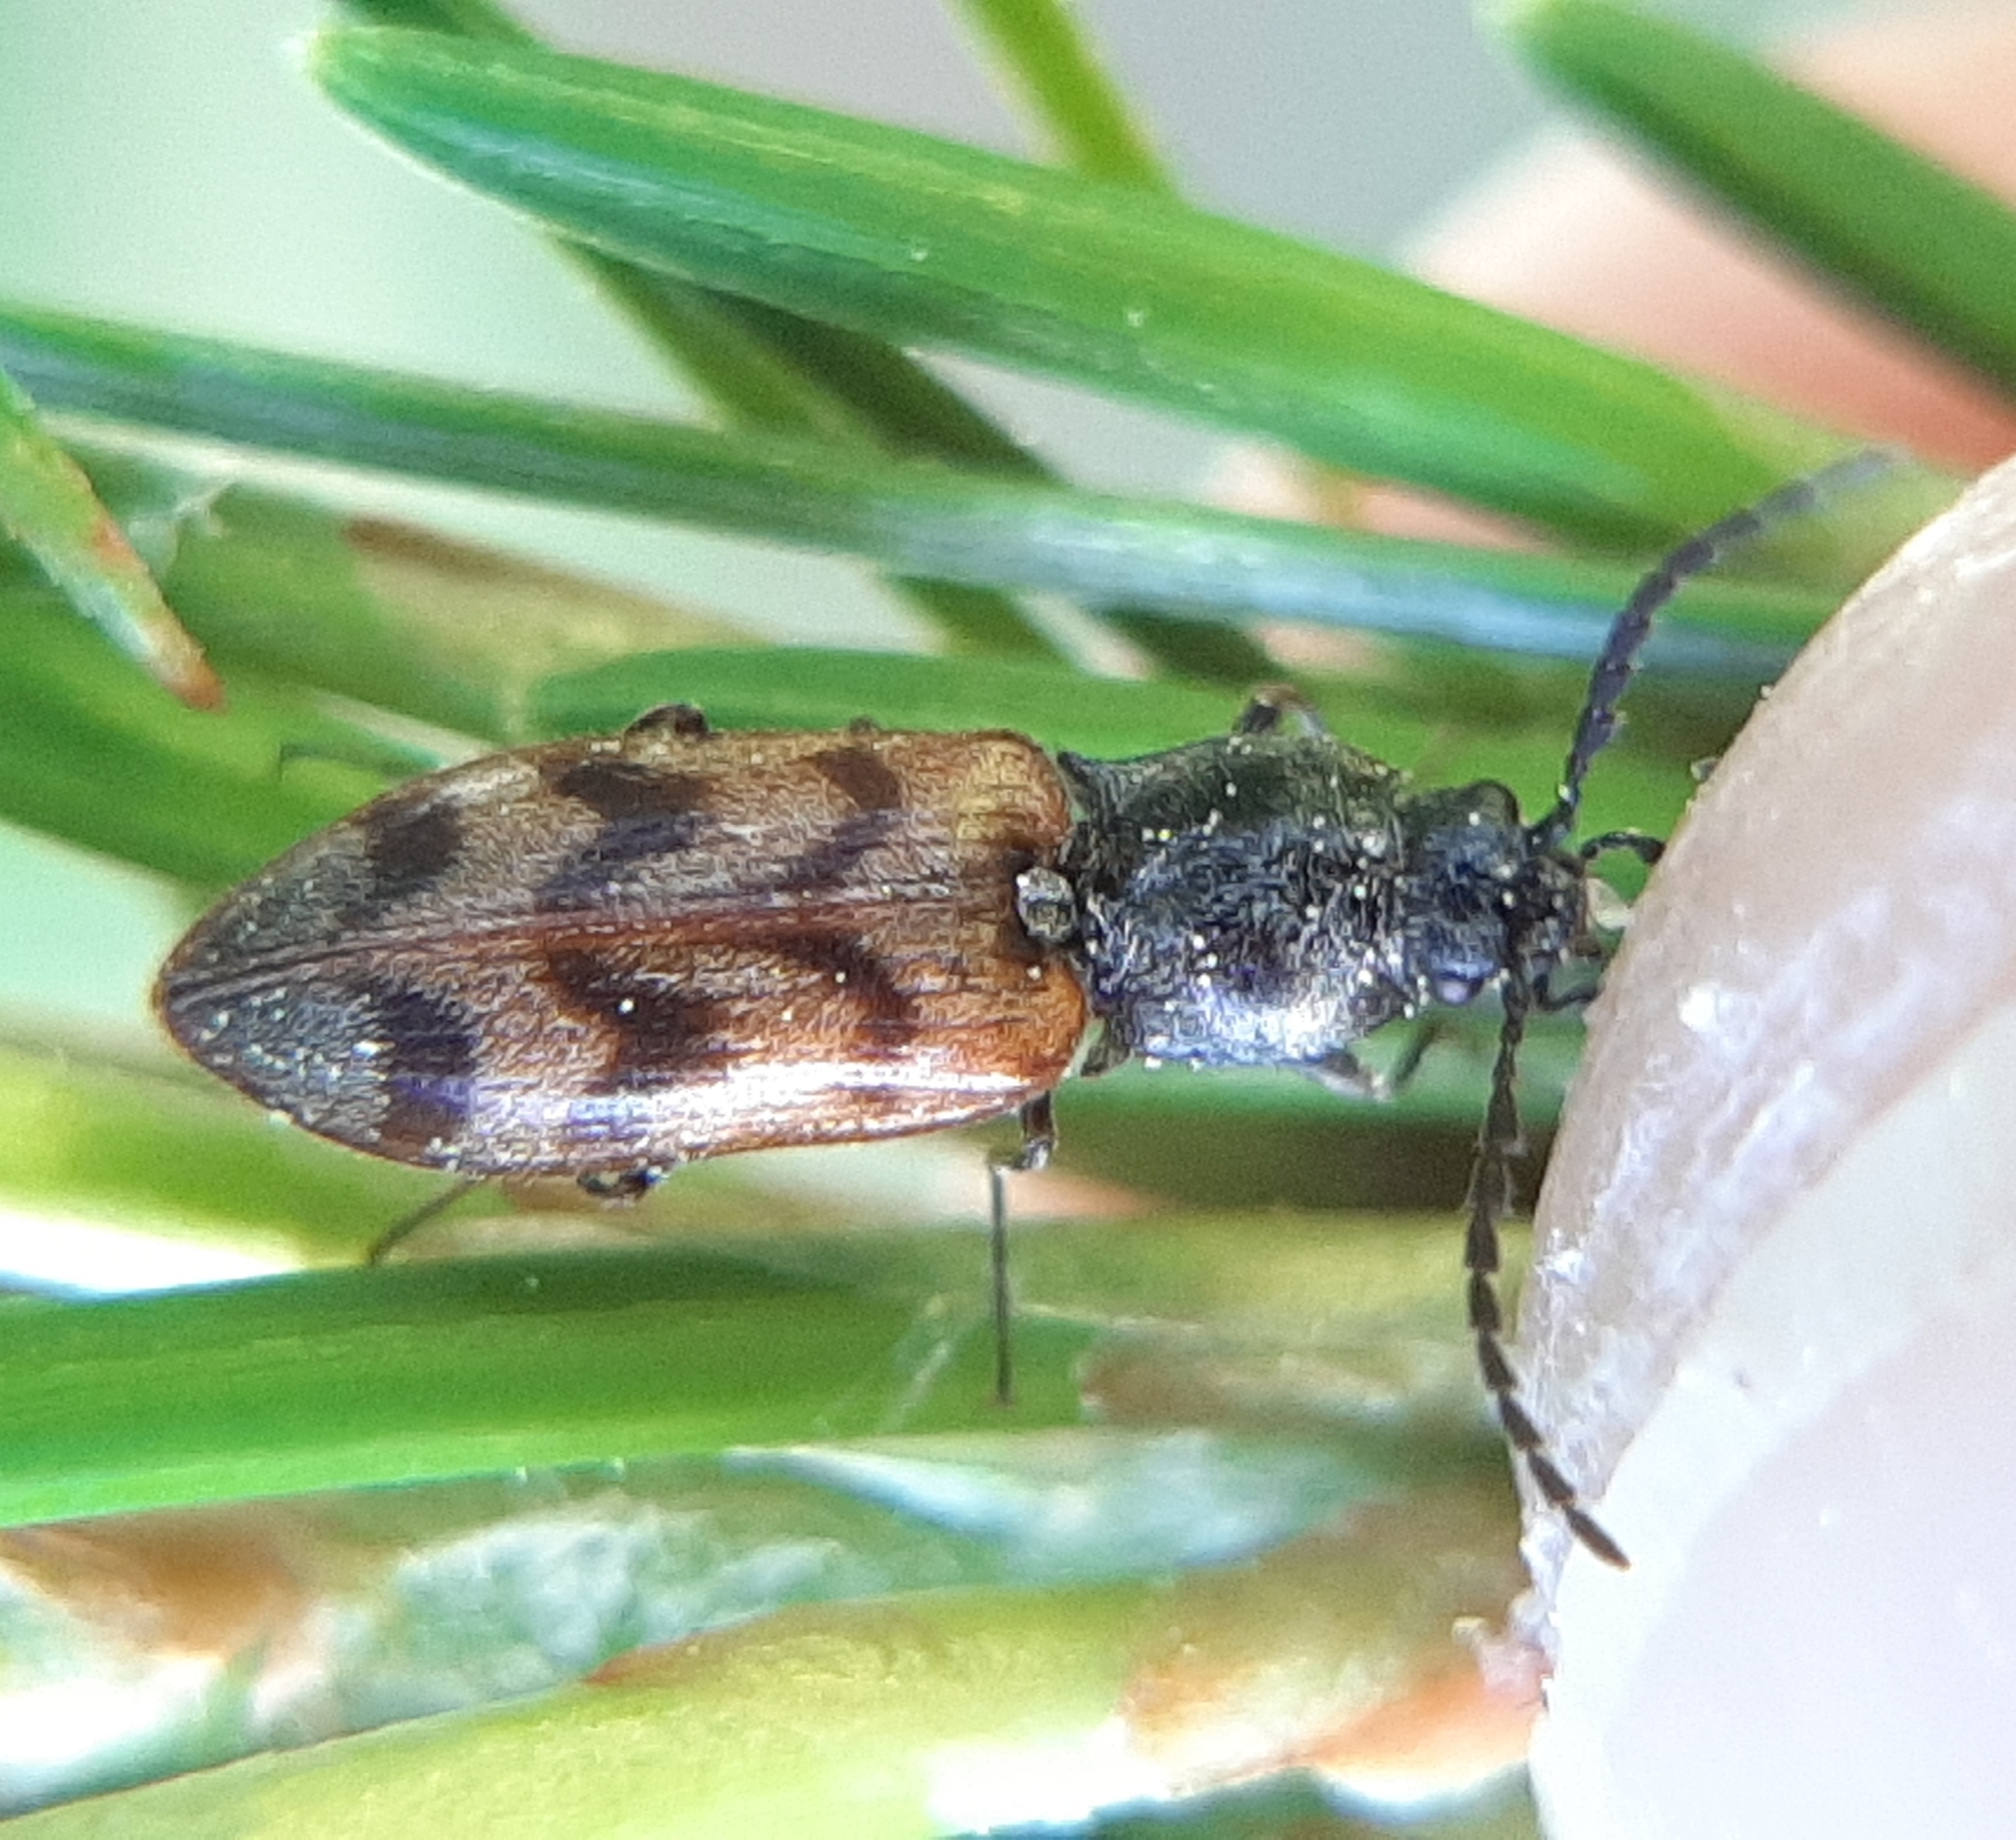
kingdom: Animalia
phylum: Arthropoda
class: Insecta
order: Coleoptera
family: Elateridae
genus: Pseudanostirus
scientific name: Pseudanostirus triundulatus
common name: Three-spotted click beetle
